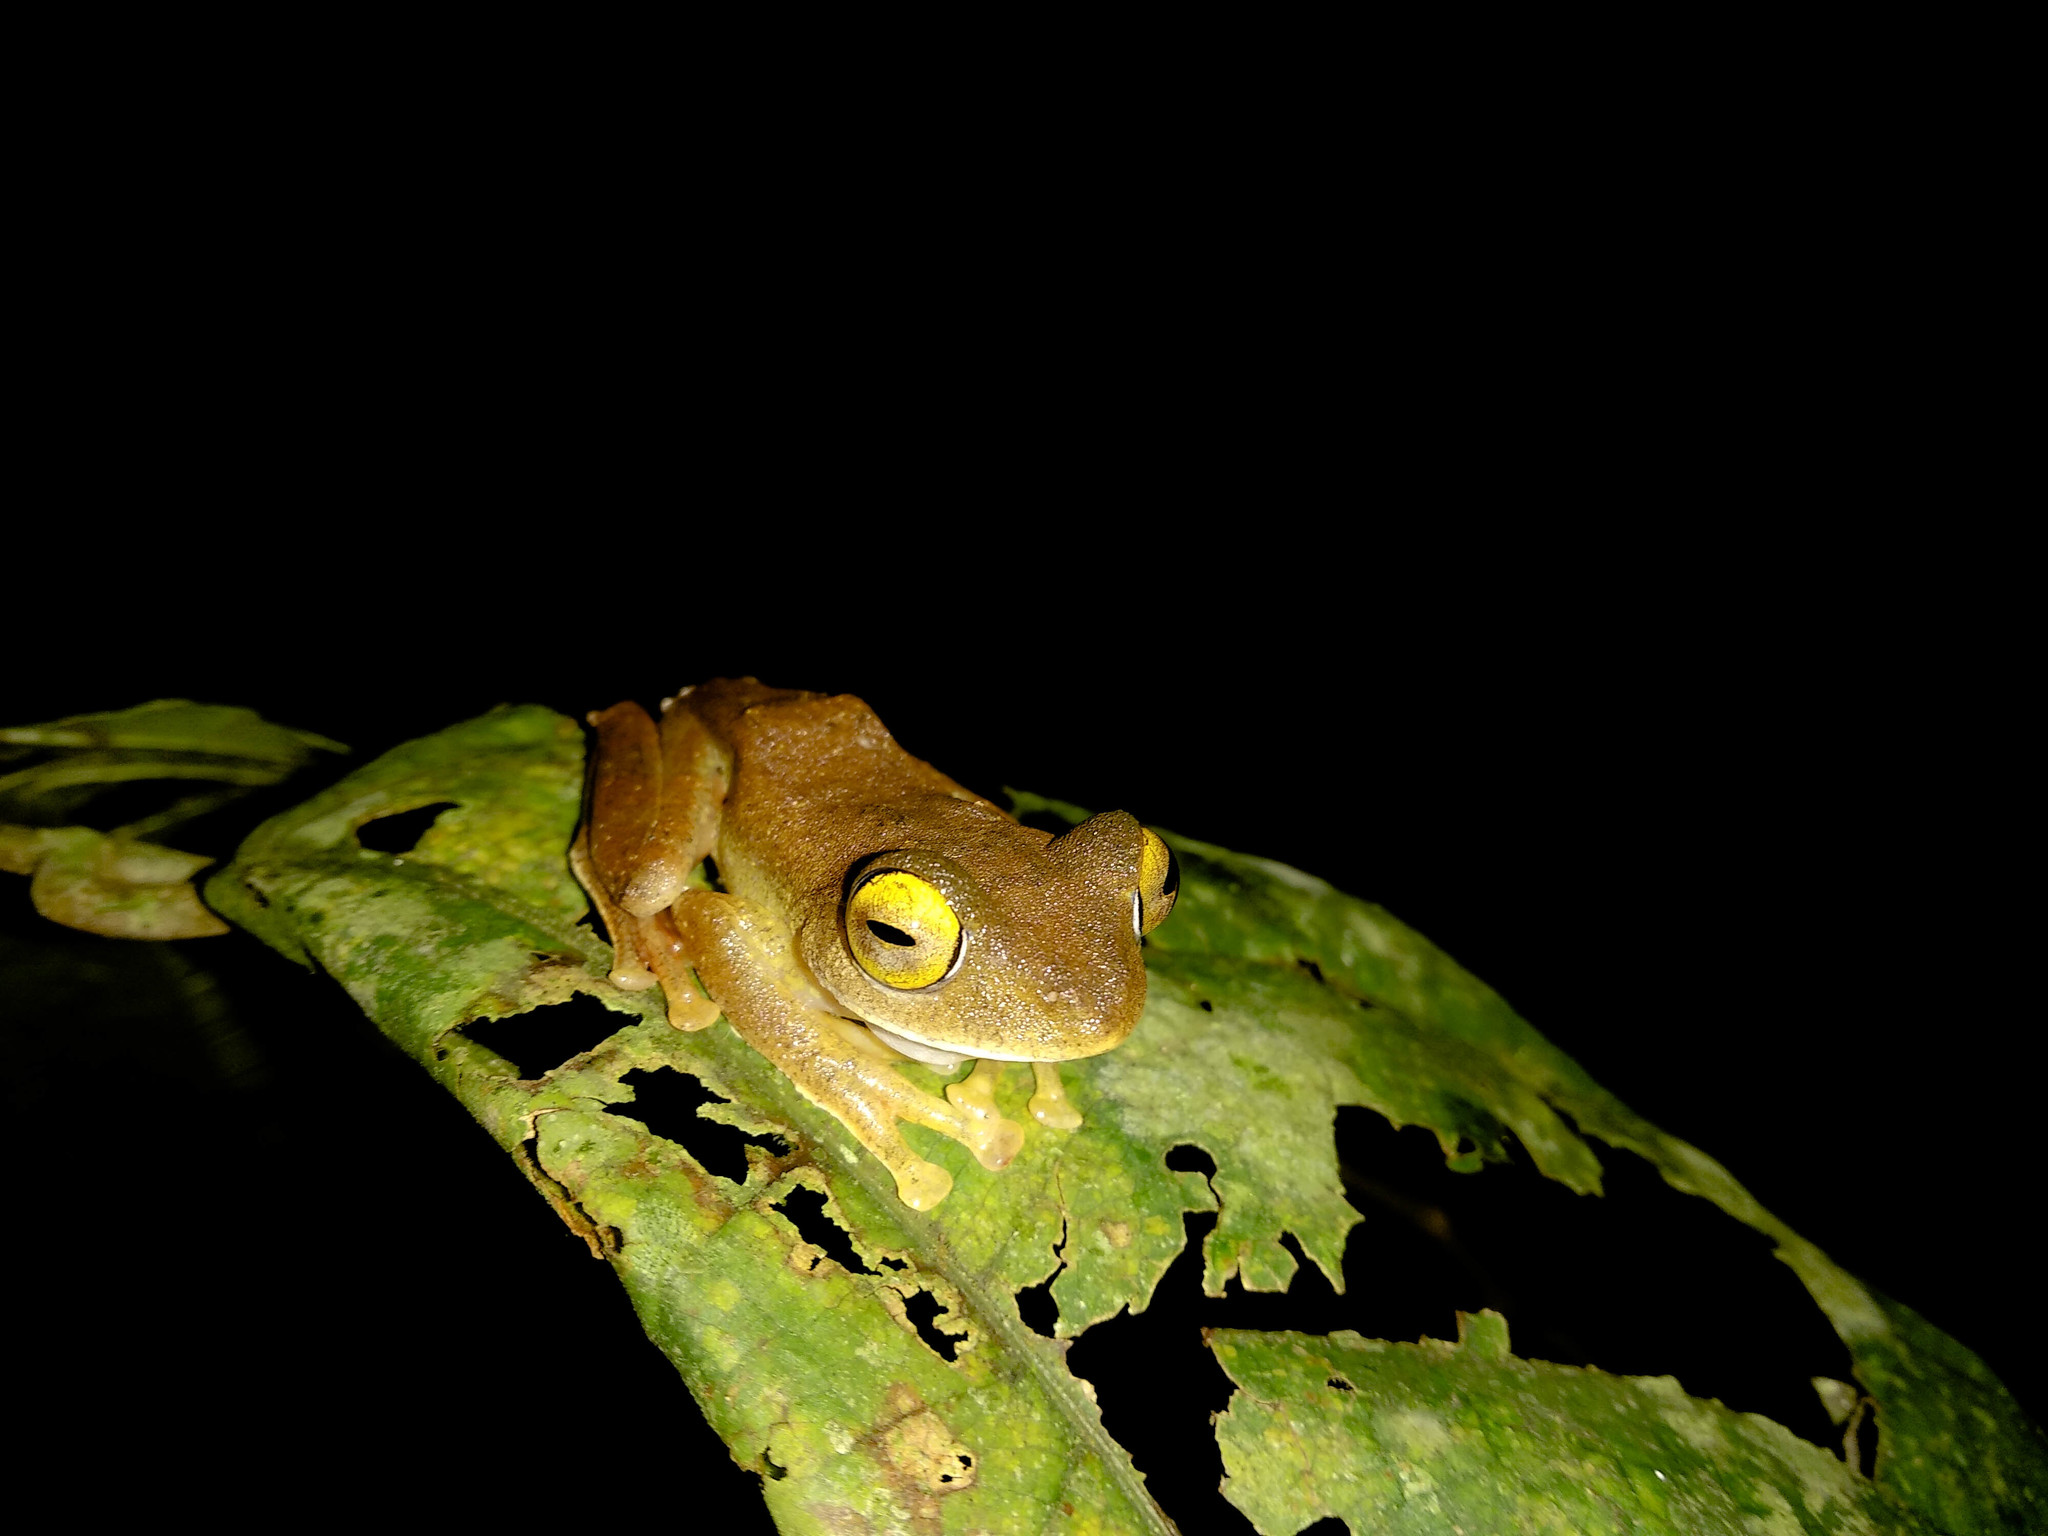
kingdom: Animalia
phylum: Chordata
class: Amphibia
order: Anura
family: Rhacophoridae
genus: Rhacophorus
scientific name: Rhacophorus margaritifer
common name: Java flying frog
